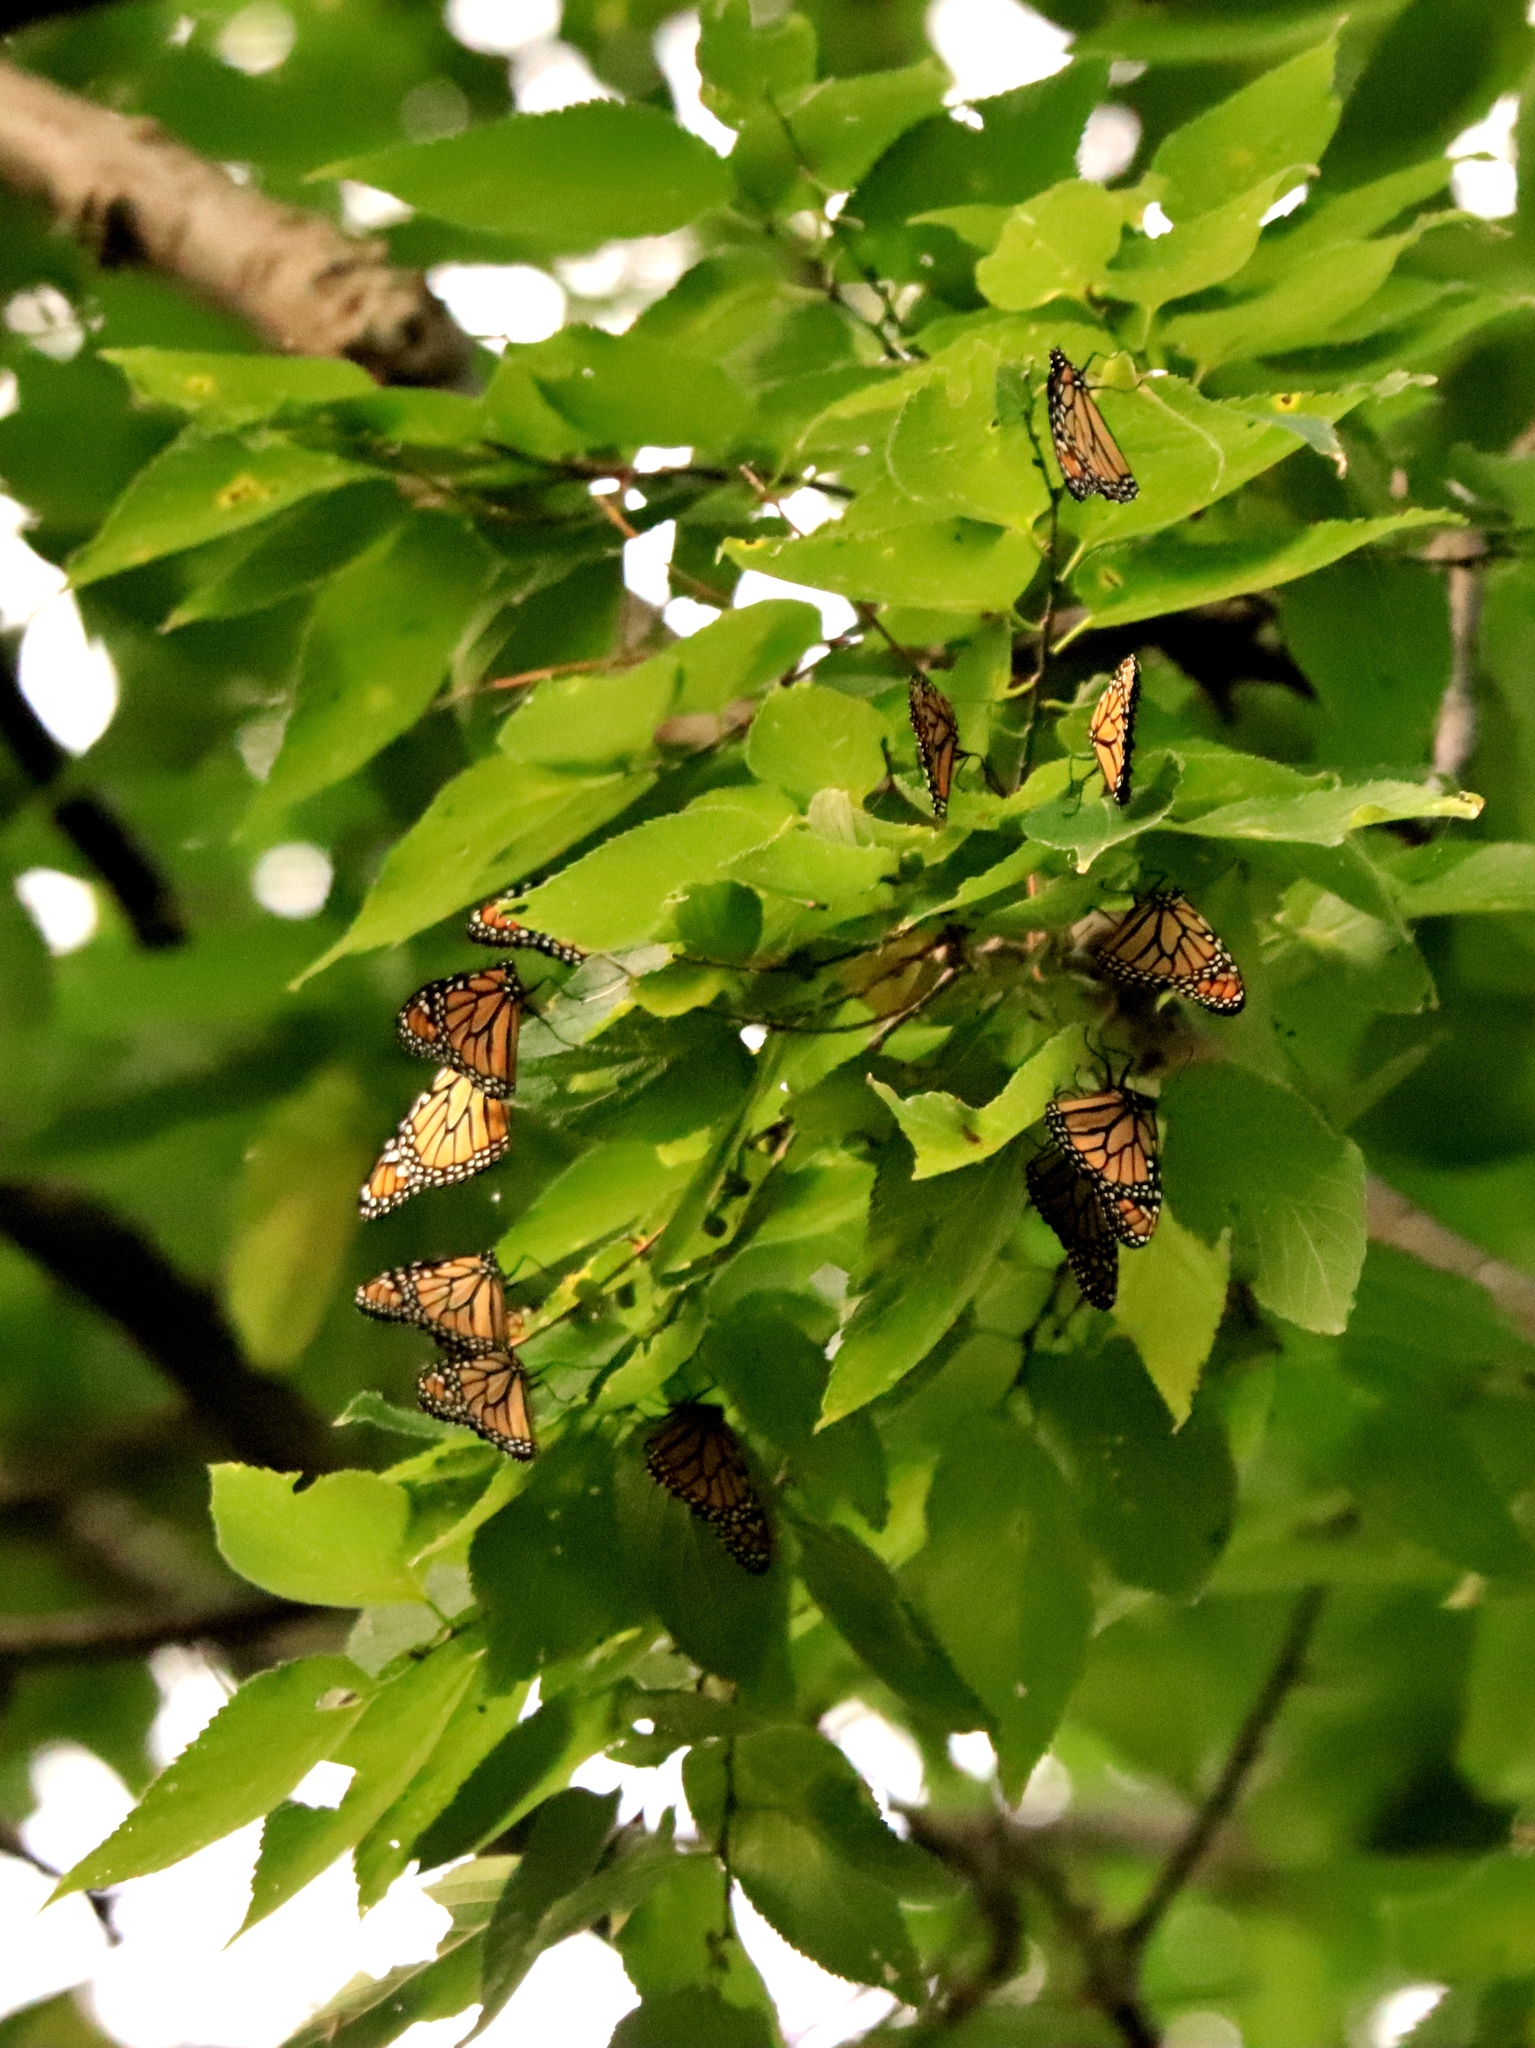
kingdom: Animalia
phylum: Arthropoda
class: Insecta
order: Lepidoptera
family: Nymphalidae
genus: Danaus
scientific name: Danaus plexippus
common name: Monarch
